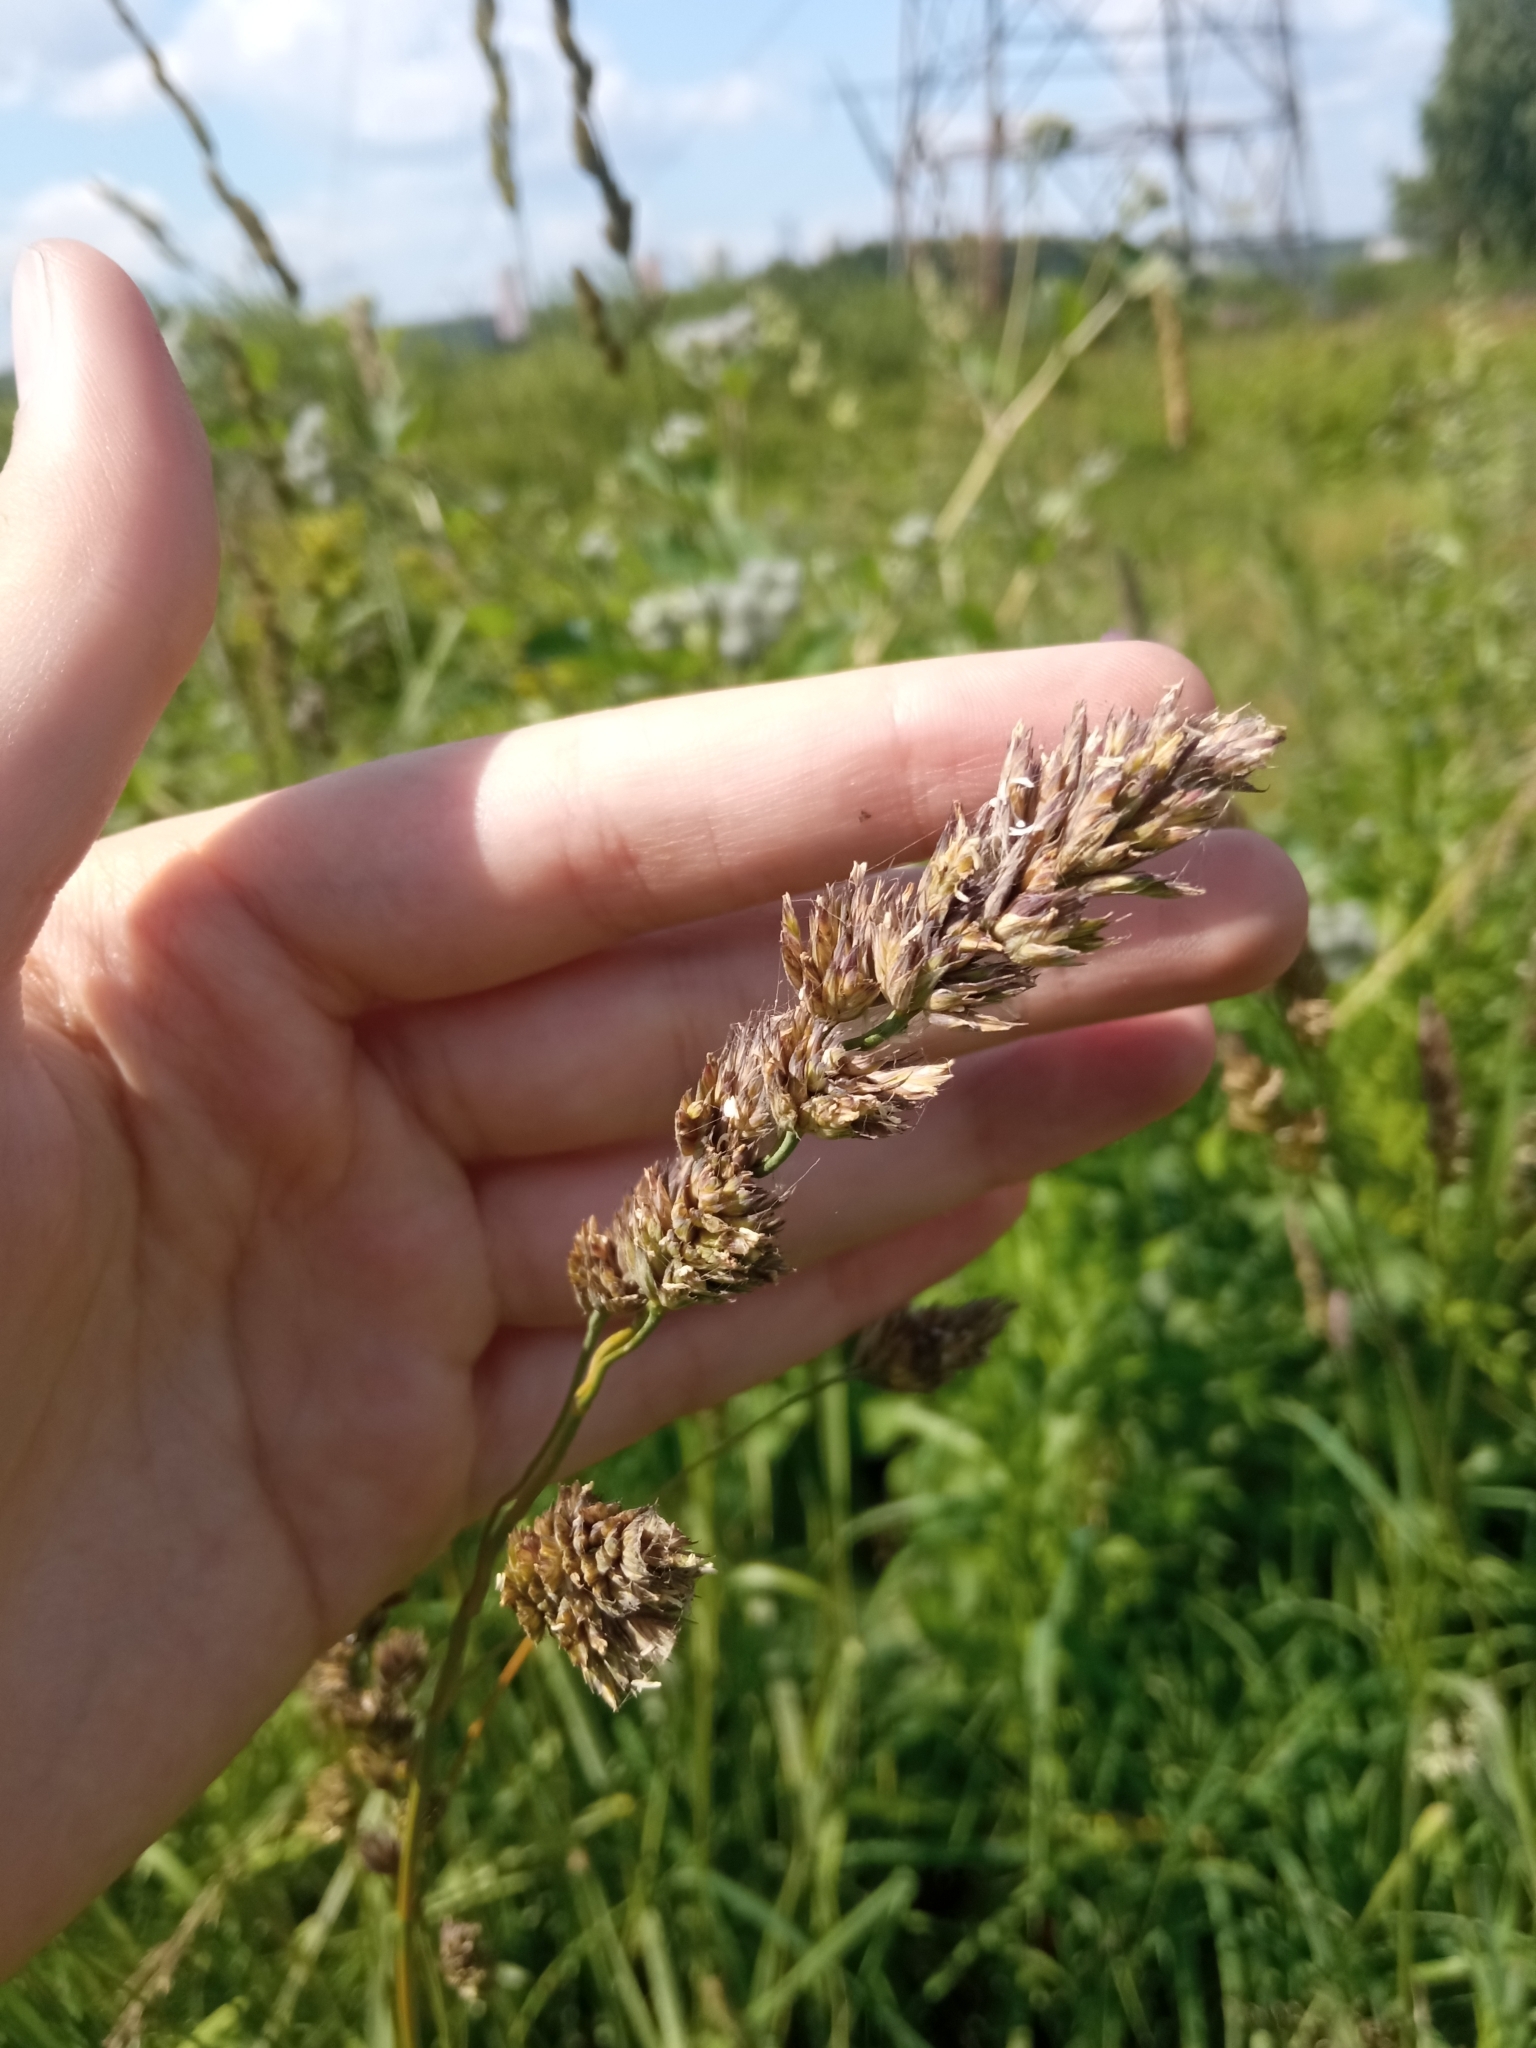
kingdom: Plantae
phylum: Tracheophyta
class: Liliopsida
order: Poales
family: Poaceae
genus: Dactylis
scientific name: Dactylis glomerata
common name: Orchardgrass
